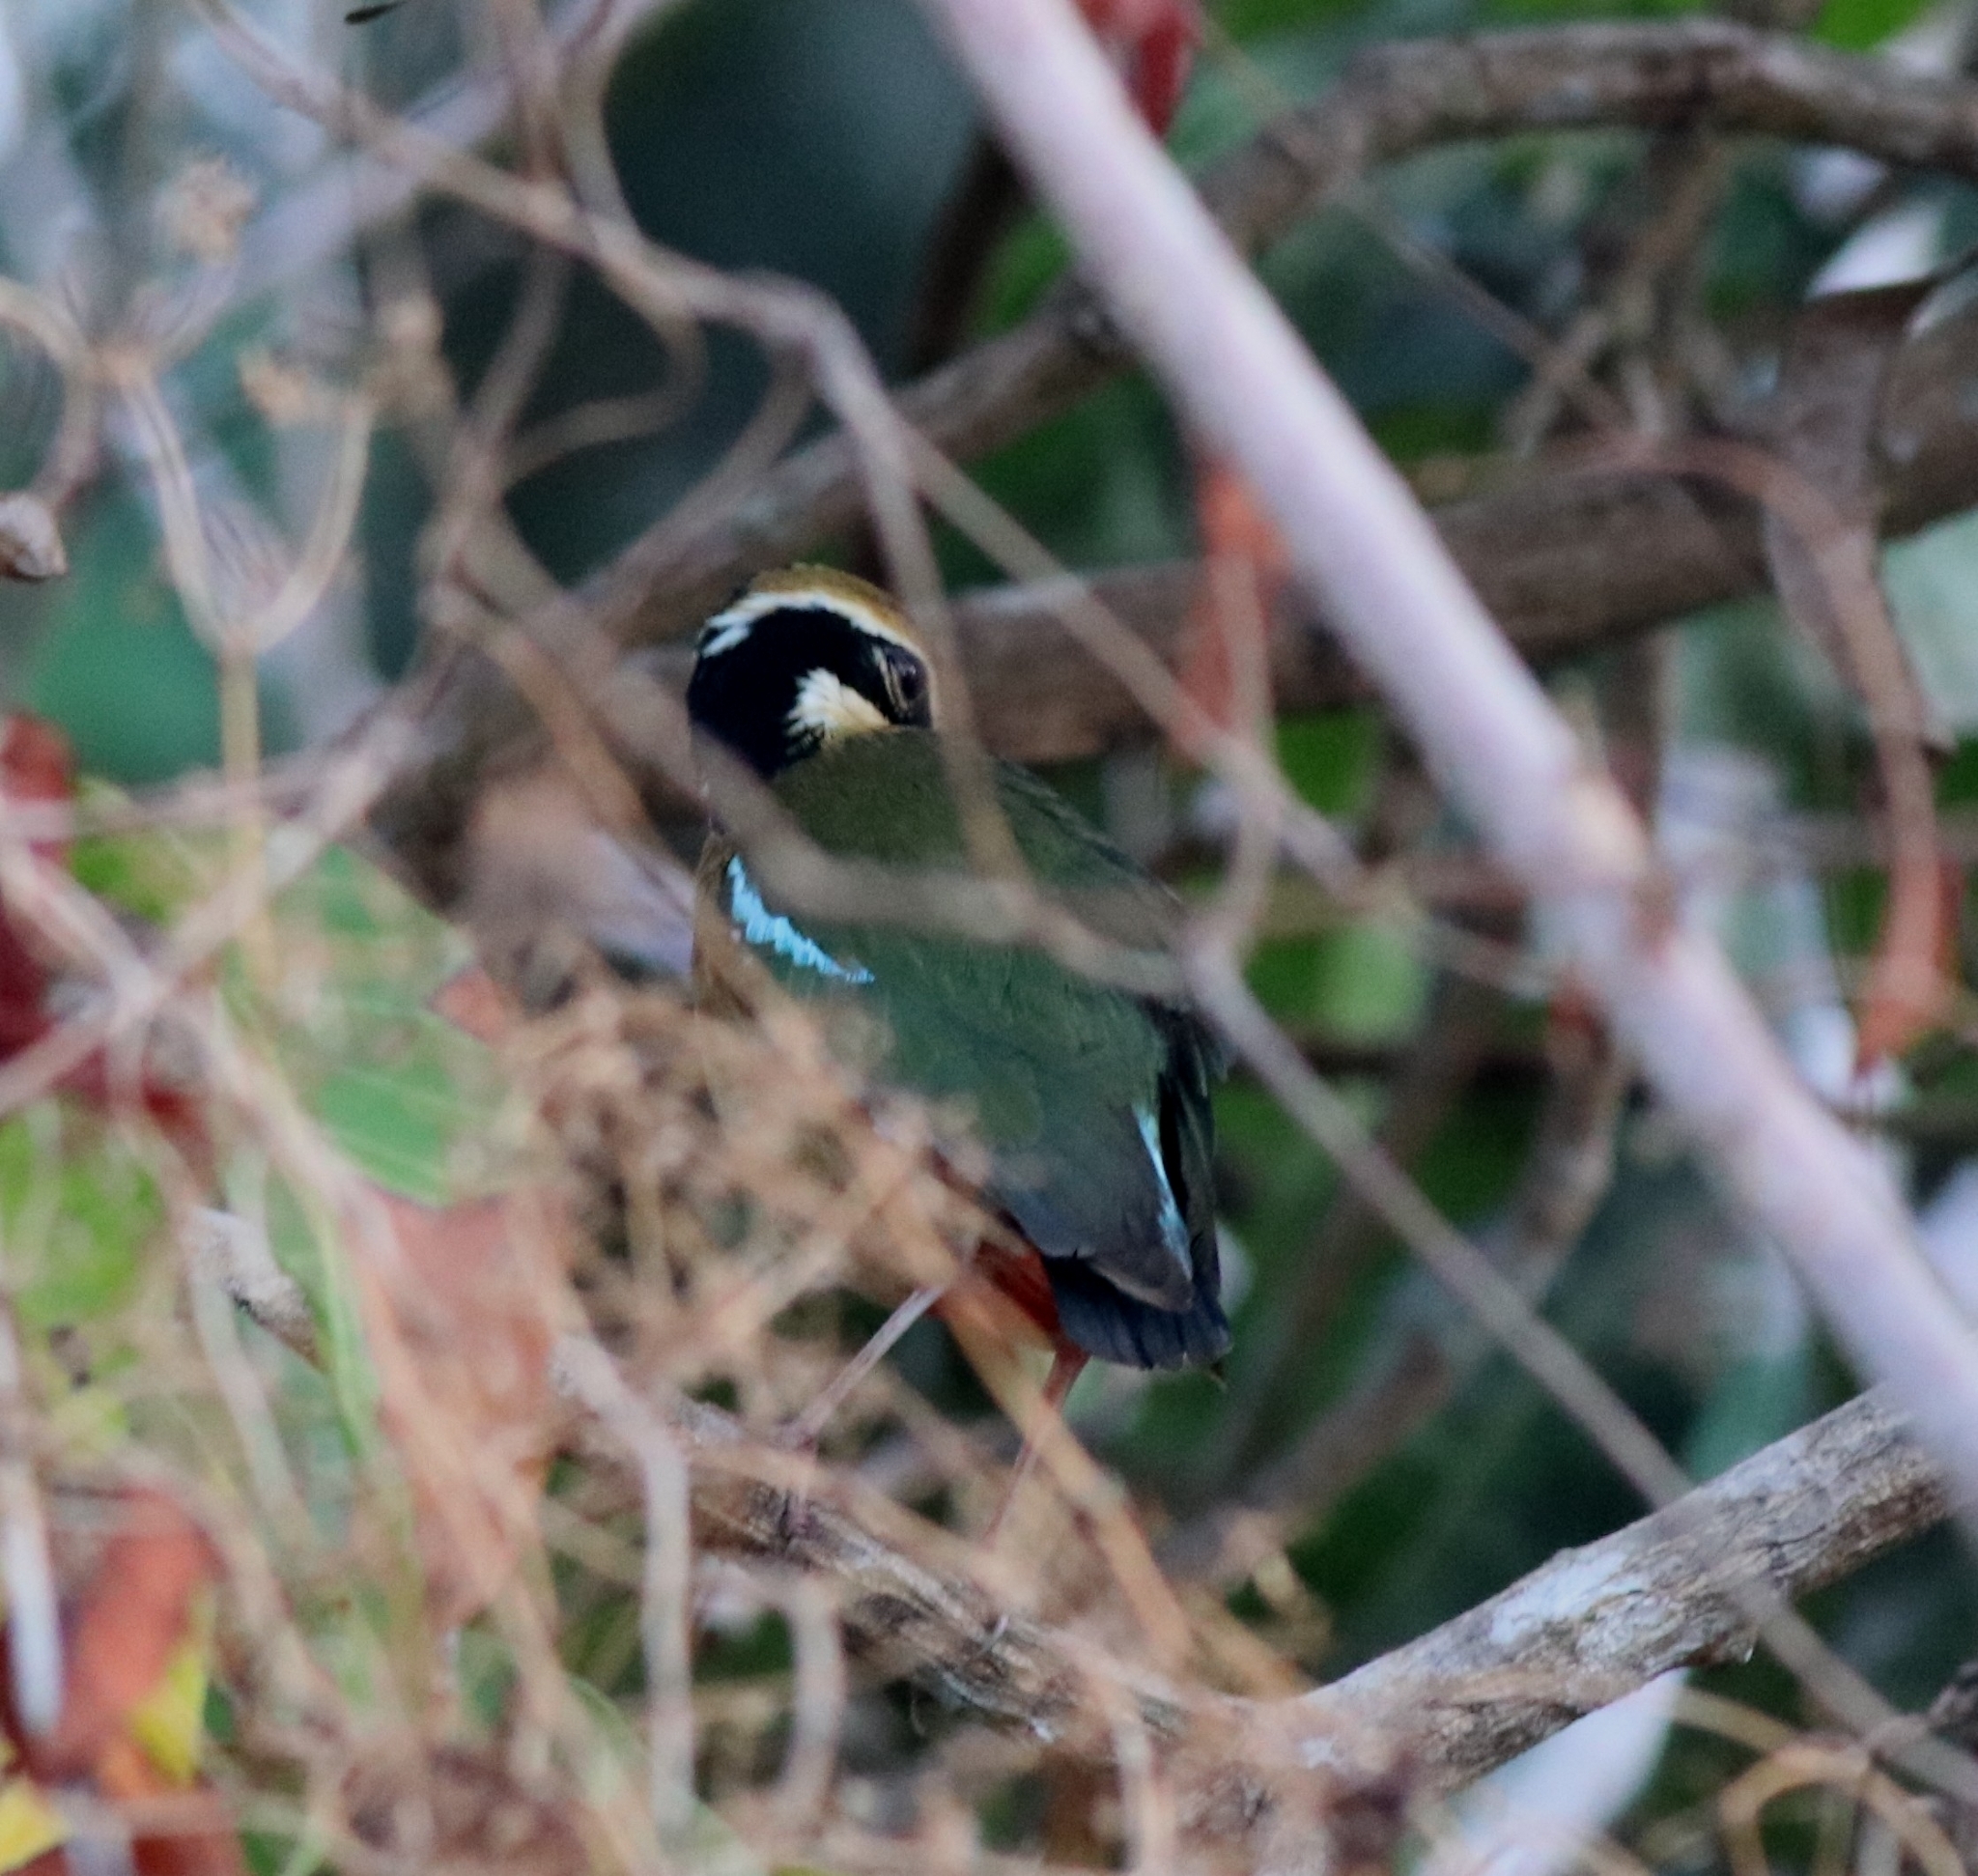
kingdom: Animalia
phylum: Chordata
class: Aves
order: Passeriformes
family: Pittidae
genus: Pitta
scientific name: Pitta brachyura
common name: Indian pitta
